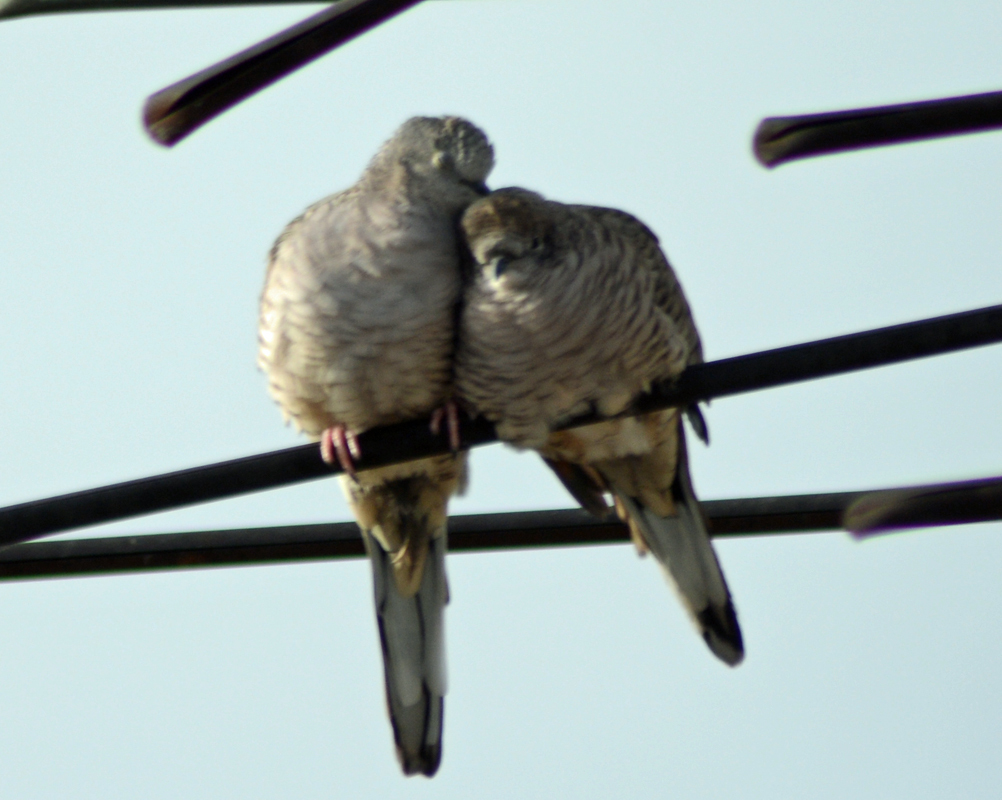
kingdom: Animalia
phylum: Chordata
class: Aves
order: Columbiformes
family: Columbidae
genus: Columbina
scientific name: Columbina inca
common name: Inca dove
